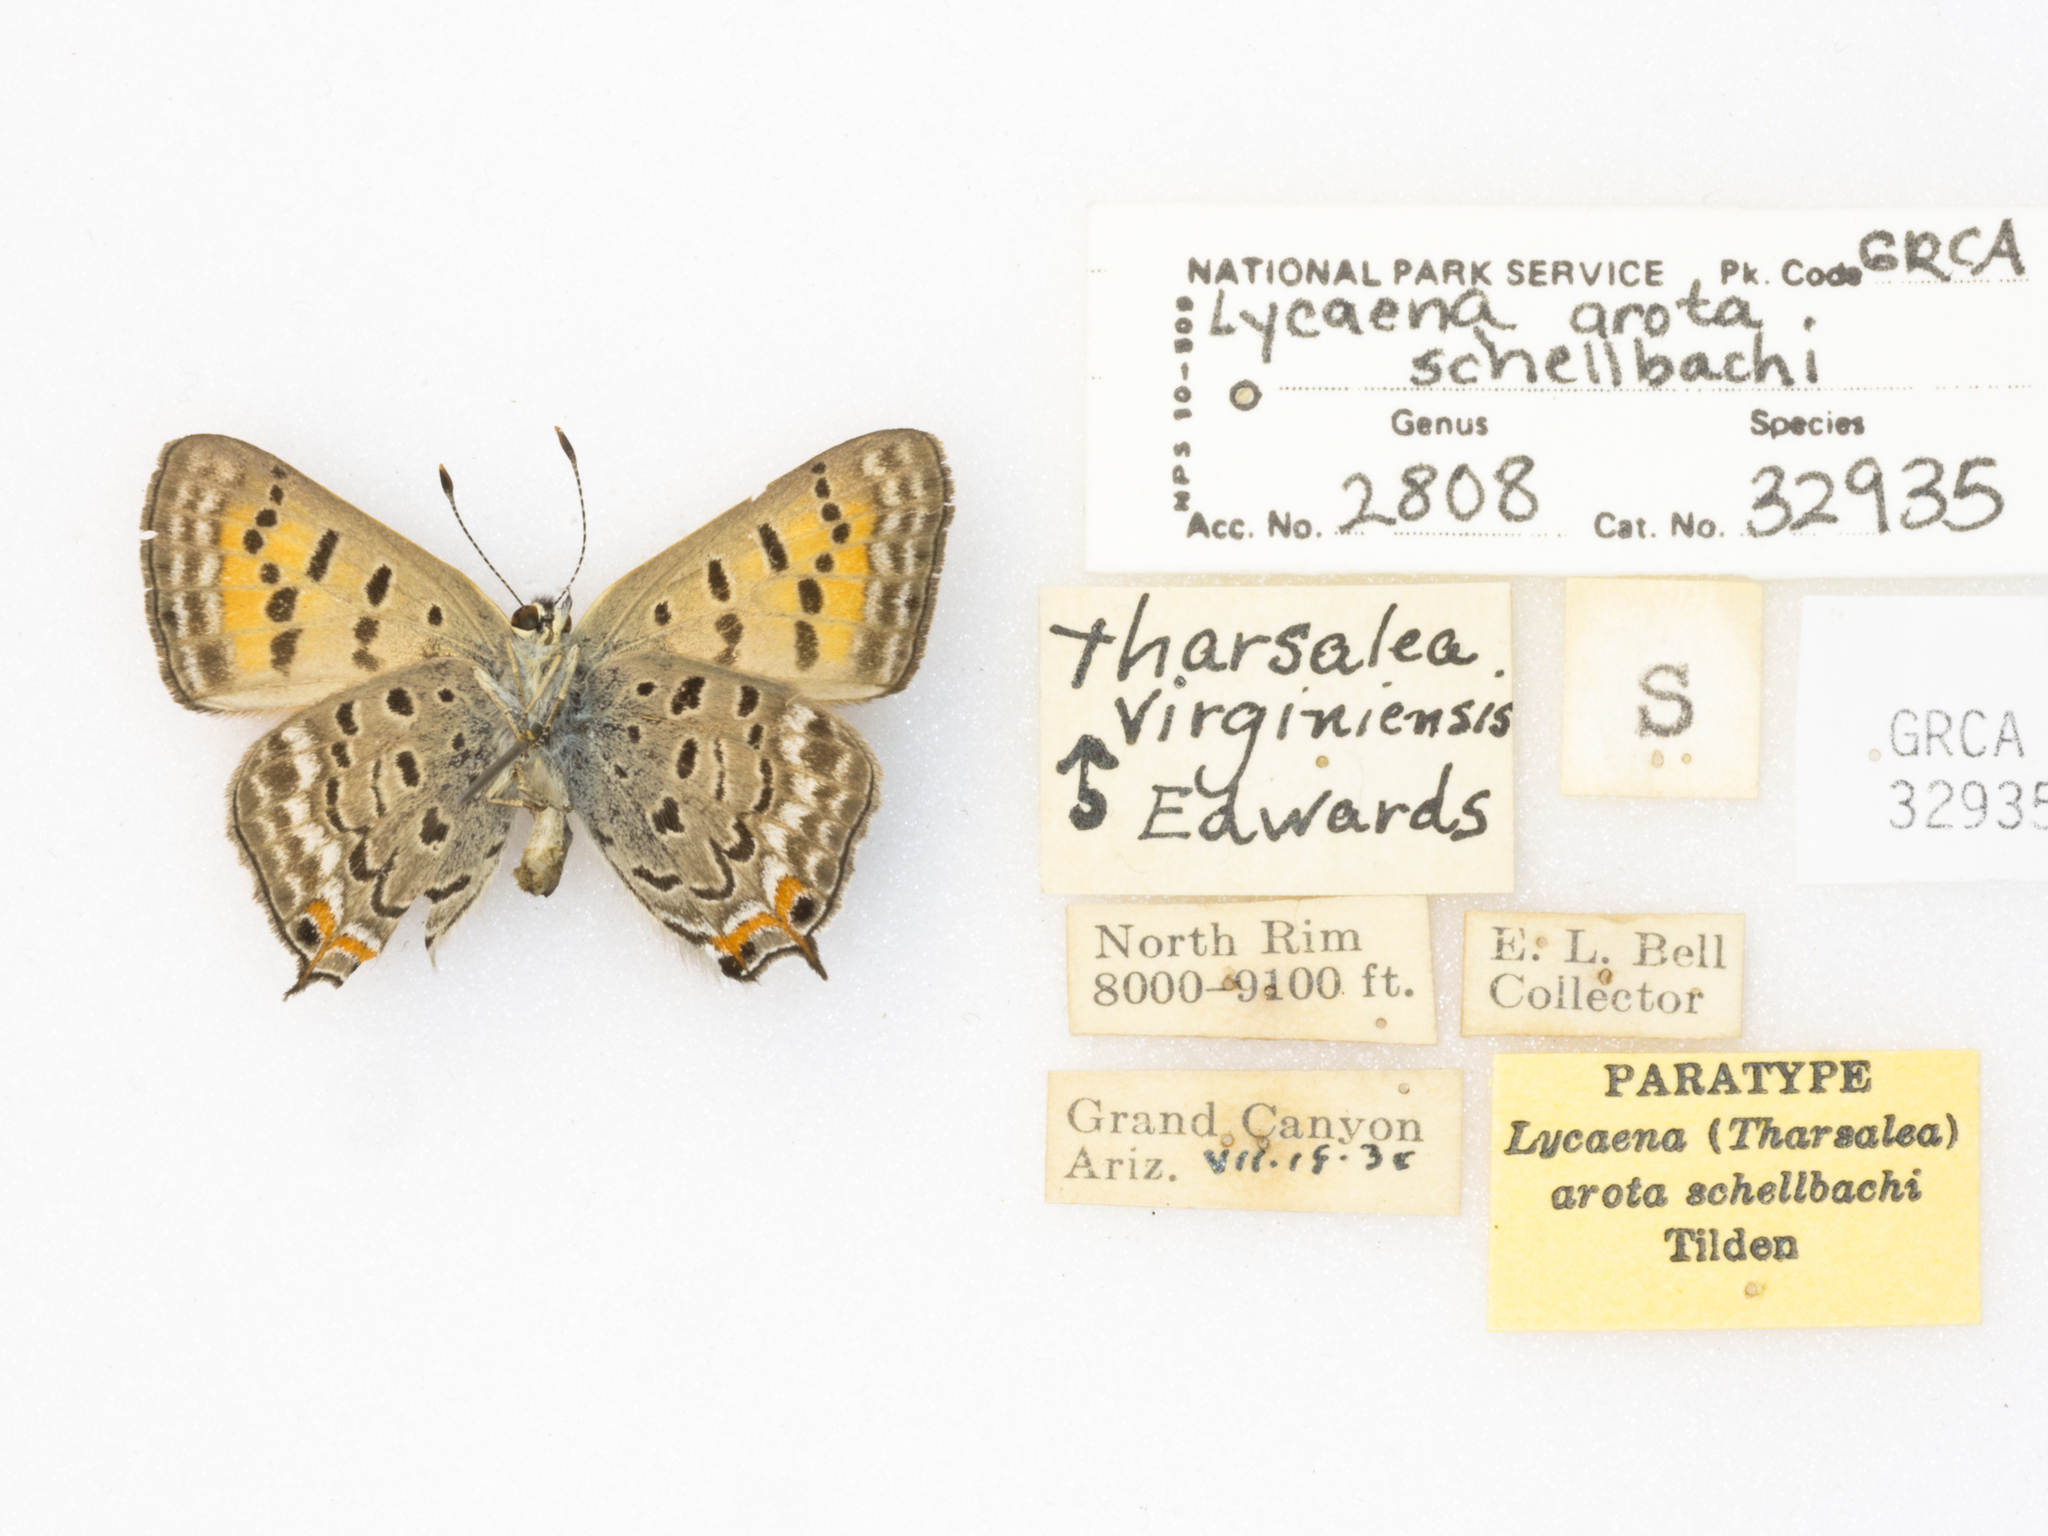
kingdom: Animalia
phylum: Arthropoda
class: Insecta
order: Lepidoptera
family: Lycaenidae
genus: Tharsalea
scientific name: Tharsalea arota
